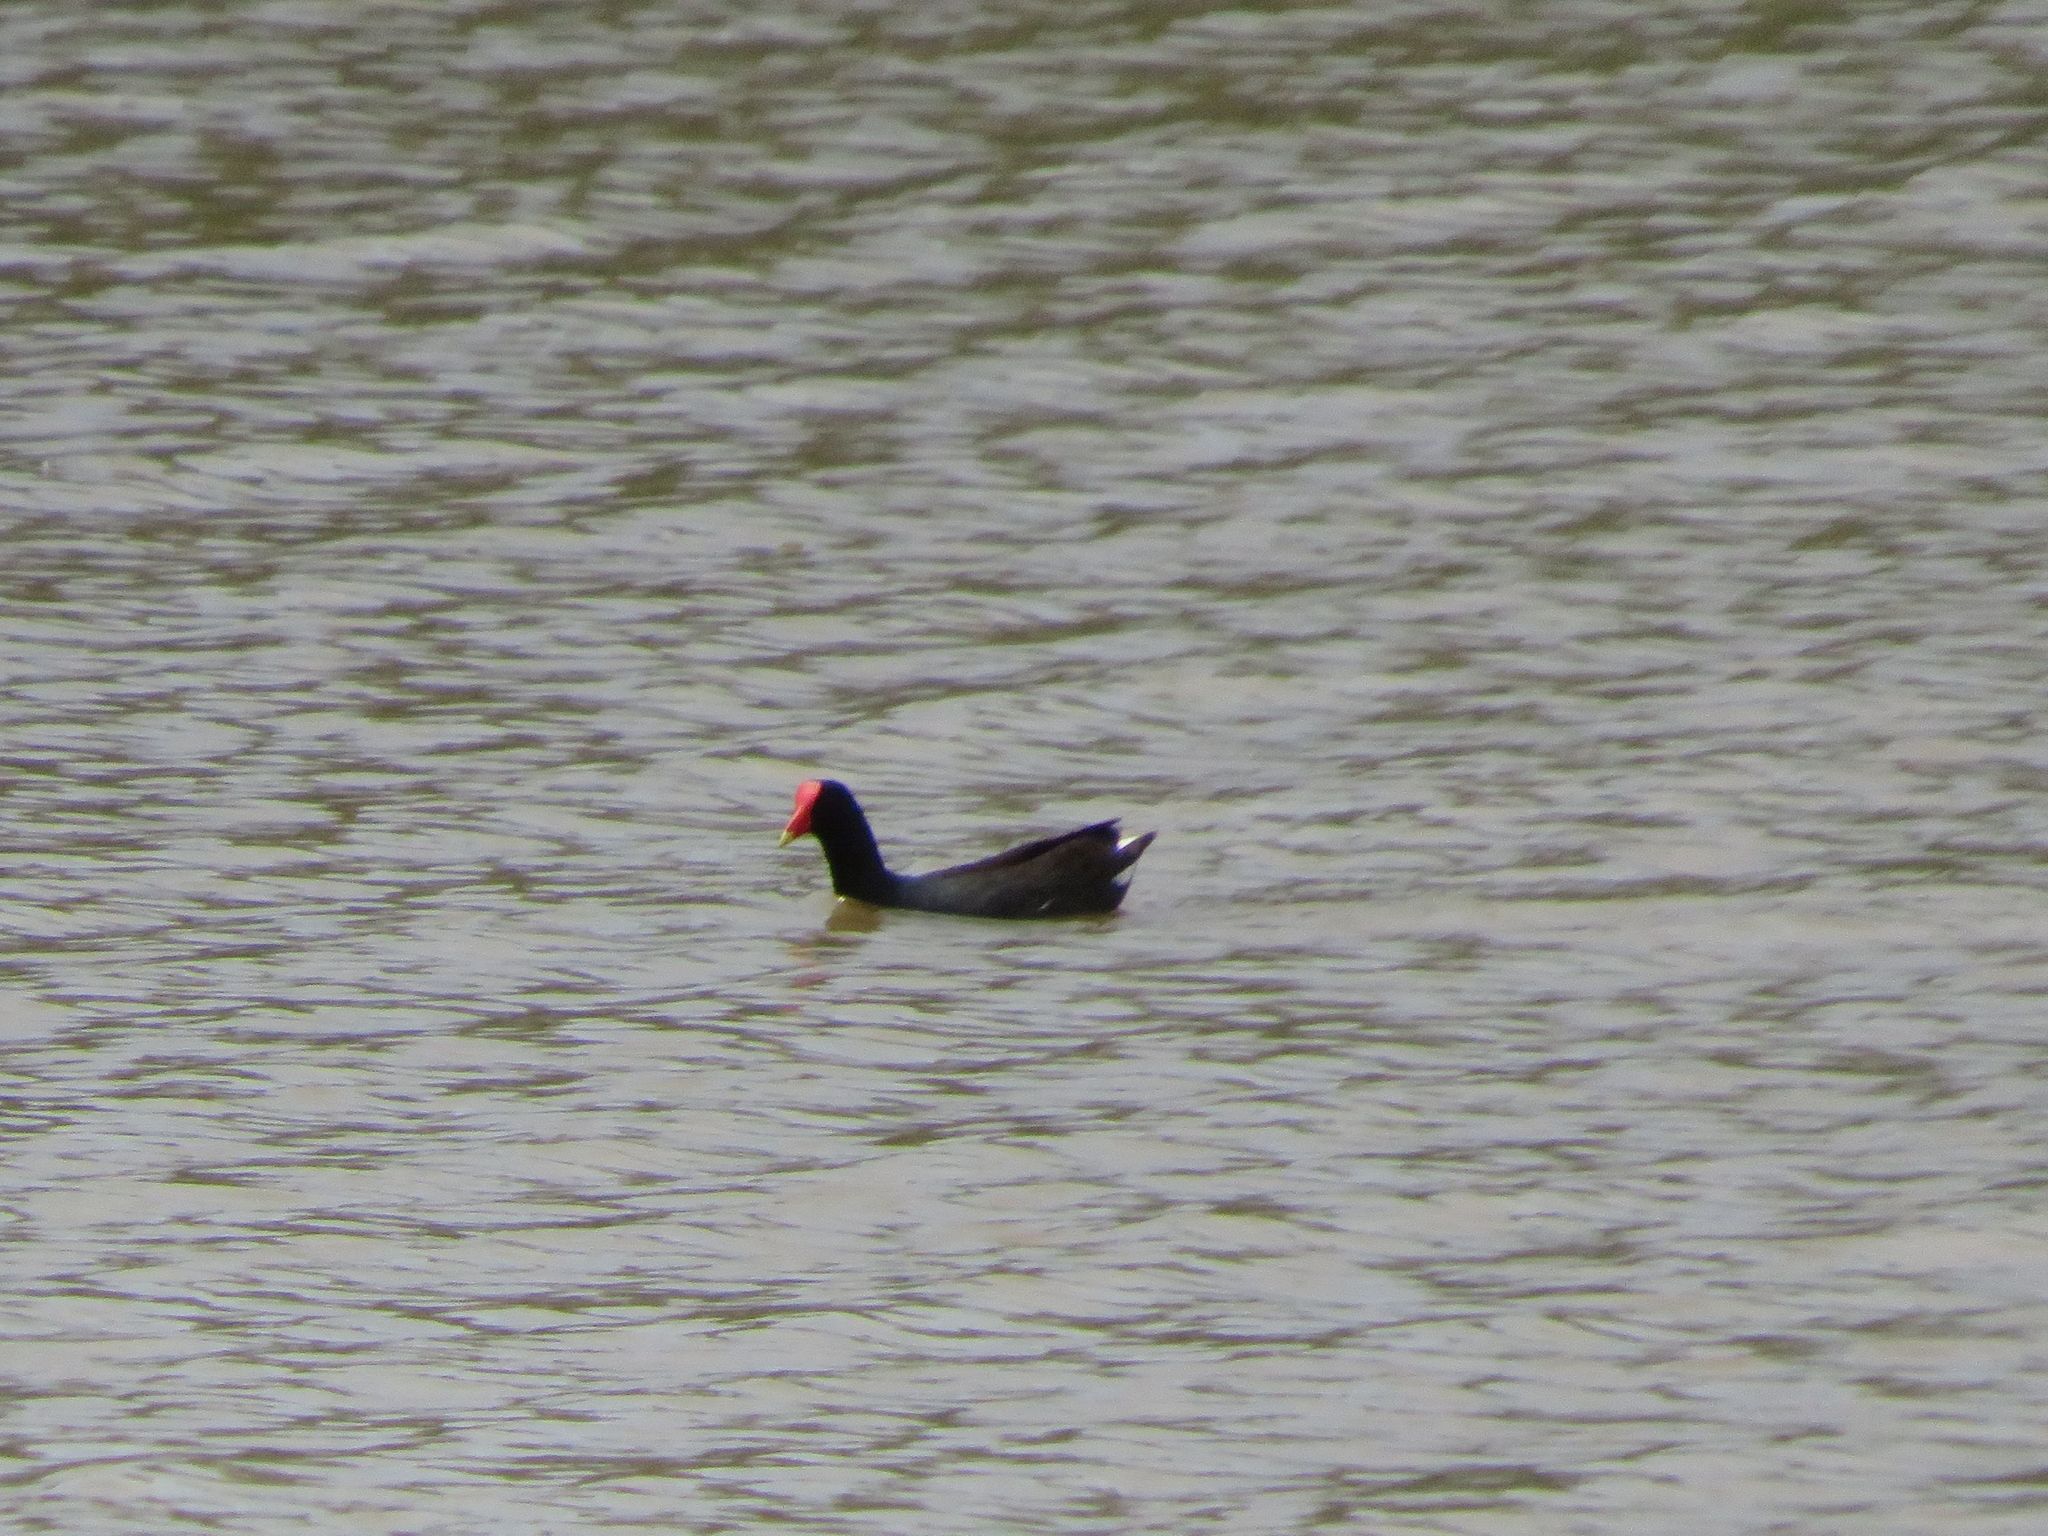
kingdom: Animalia
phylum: Chordata
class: Aves
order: Gruiformes
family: Rallidae
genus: Gallinula
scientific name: Gallinula chloropus
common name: Common moorhen
